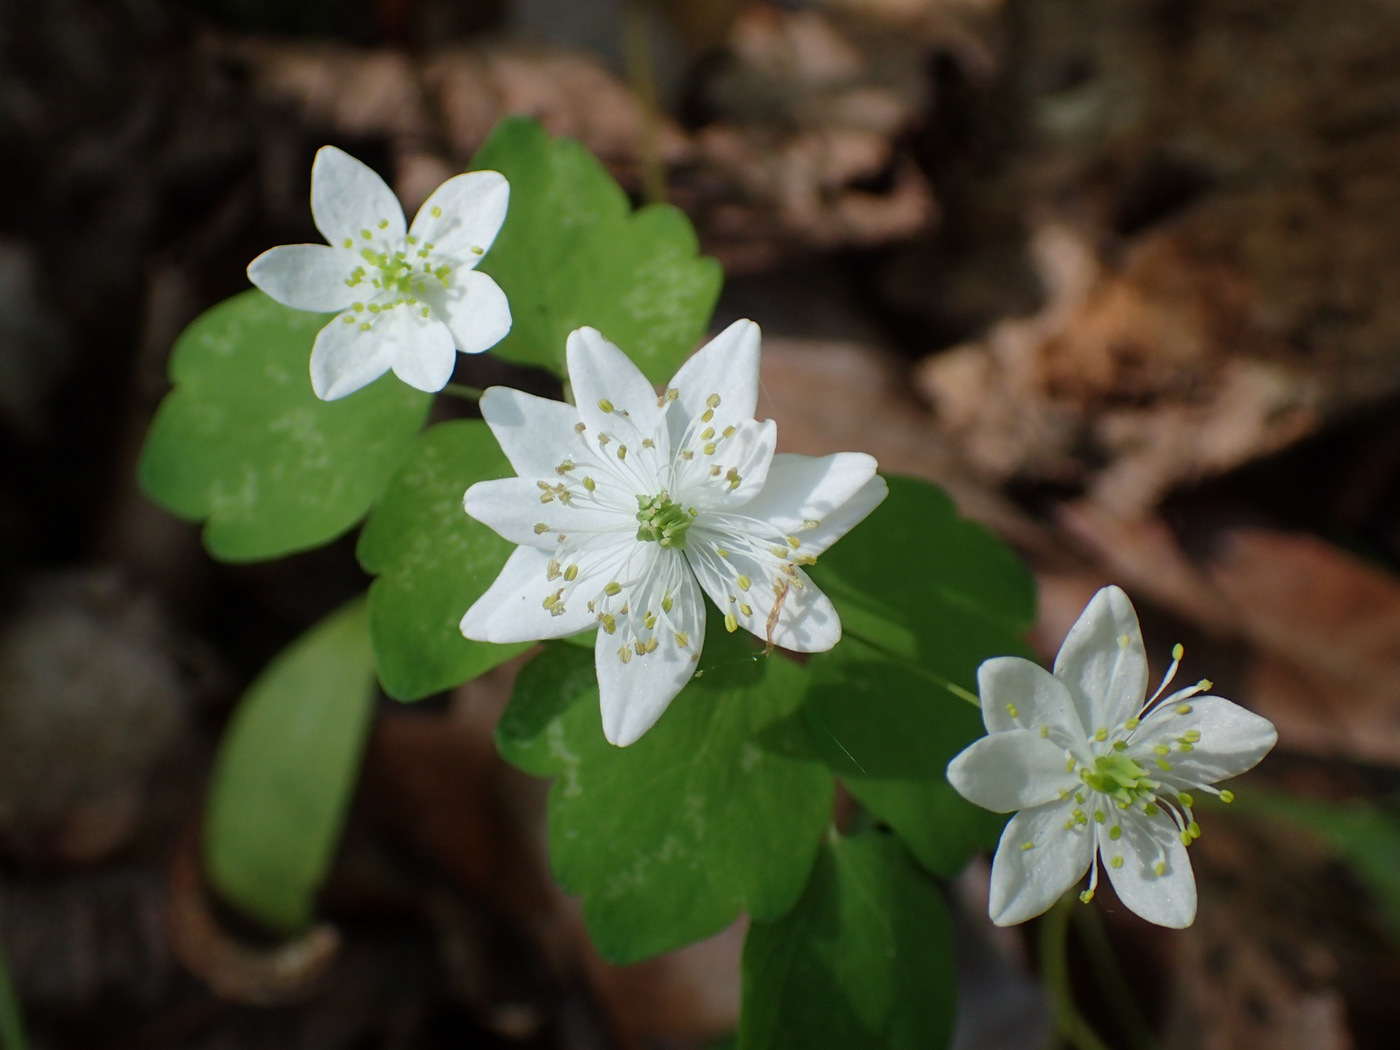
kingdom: Plantae
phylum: Tracheophyta
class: Magnoliopsida
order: Ranunculales
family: Ranunculaceae
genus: Thalictrum
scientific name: Thalictrum thalictroides
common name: Rue-anemone
